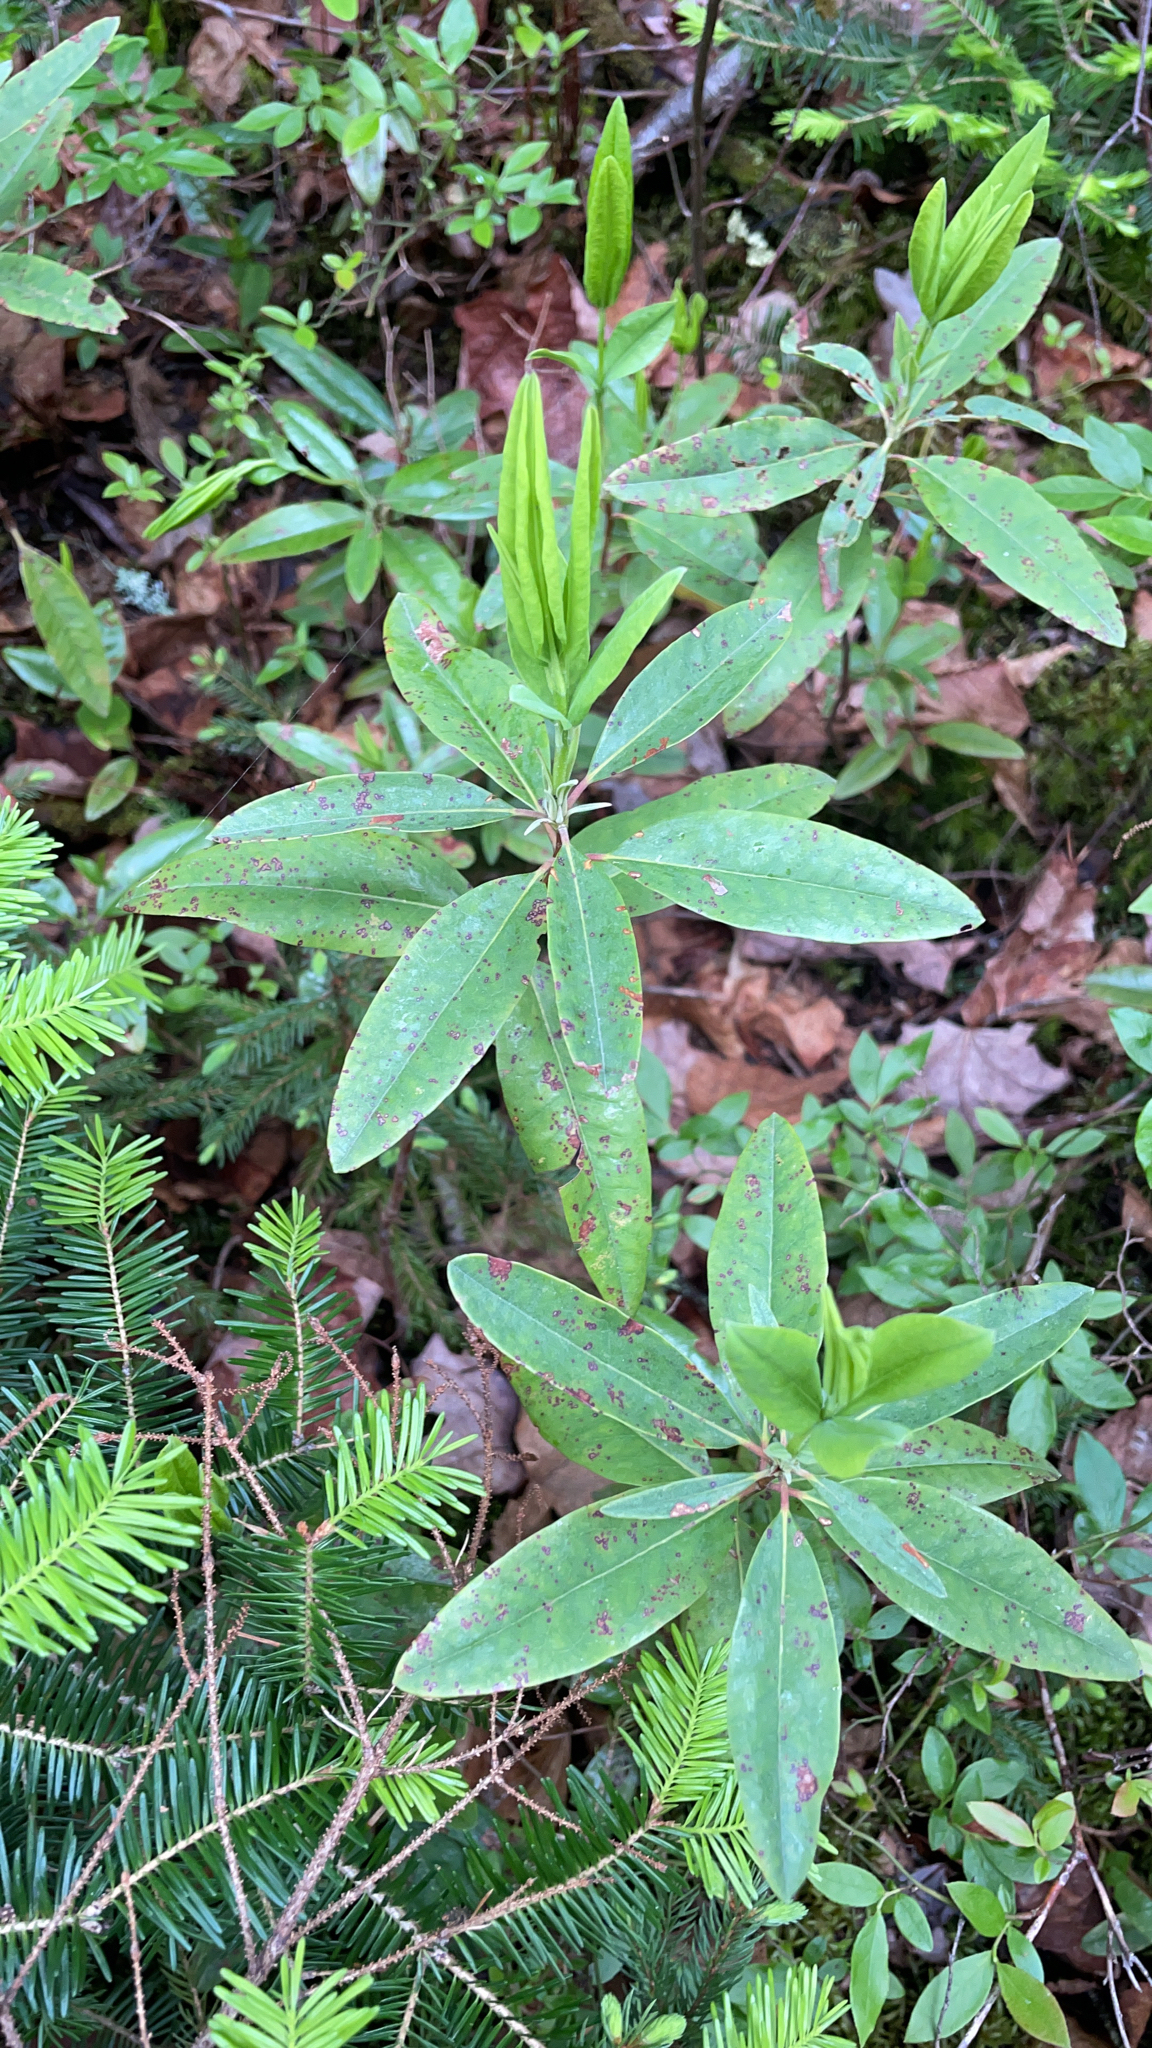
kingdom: Plantae
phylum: Tracheophyta
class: Magnoliopsida
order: Ericales
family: Ericaceae
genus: Kalmia
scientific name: Kalmia angustifolia
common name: Sheep-laurel
